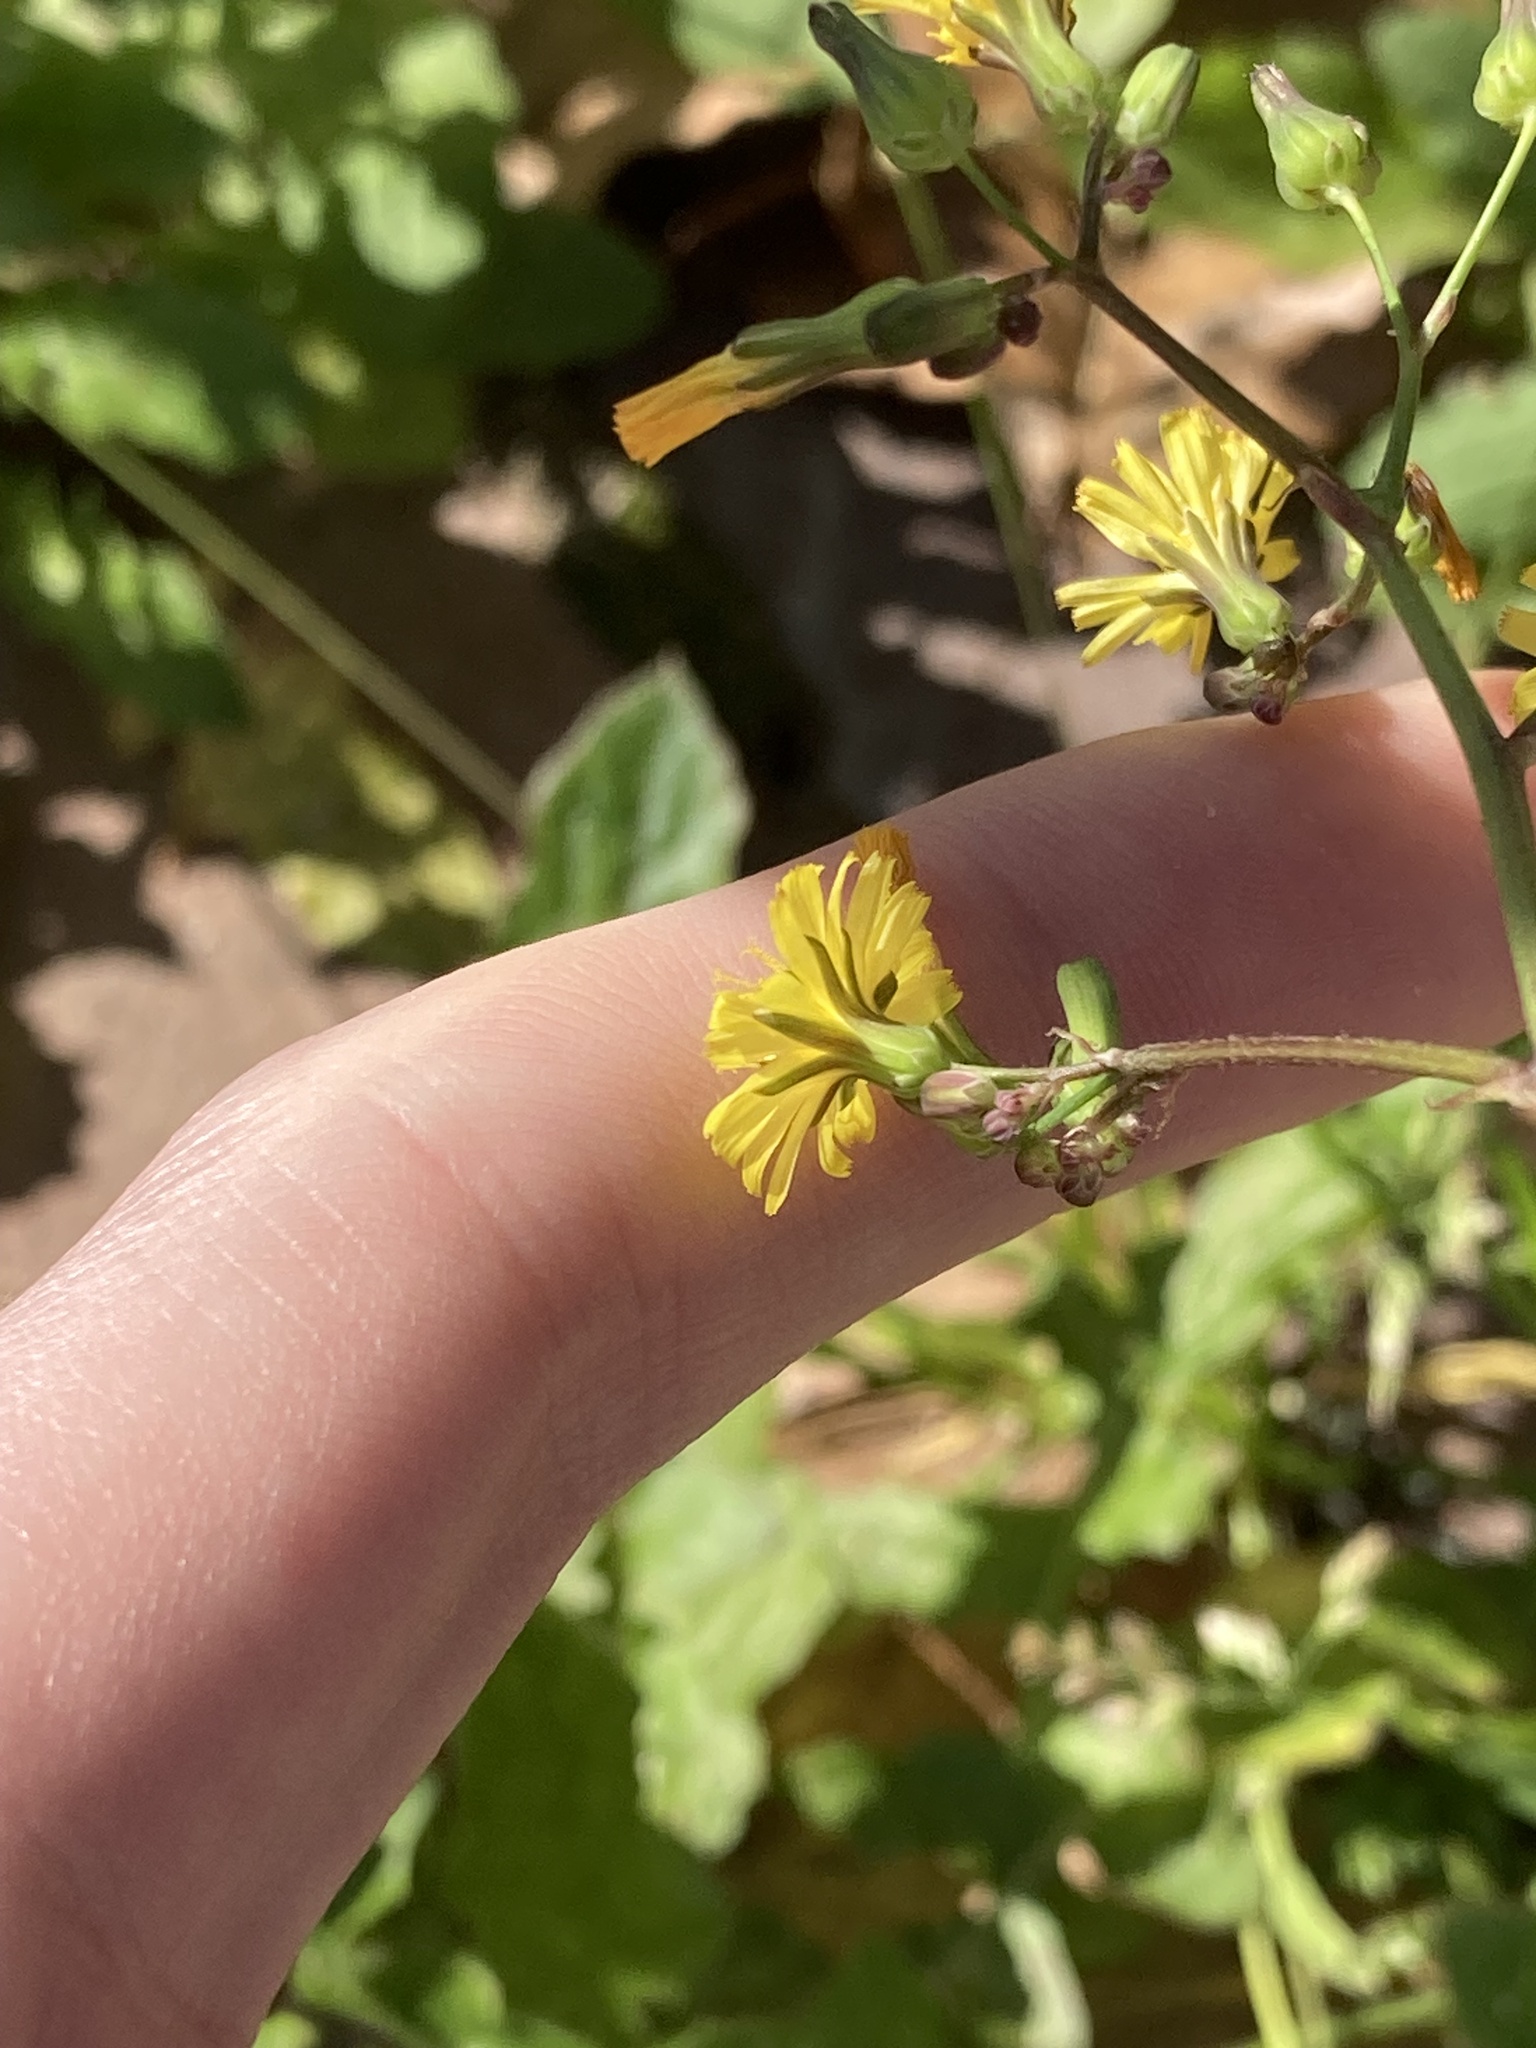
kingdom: Plantae
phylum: Tracheophyta
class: Magnoliopsida
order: Asterales
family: Asteraceae
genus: Youngia
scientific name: Youngia japonica
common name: Oriental false hawksbeard
